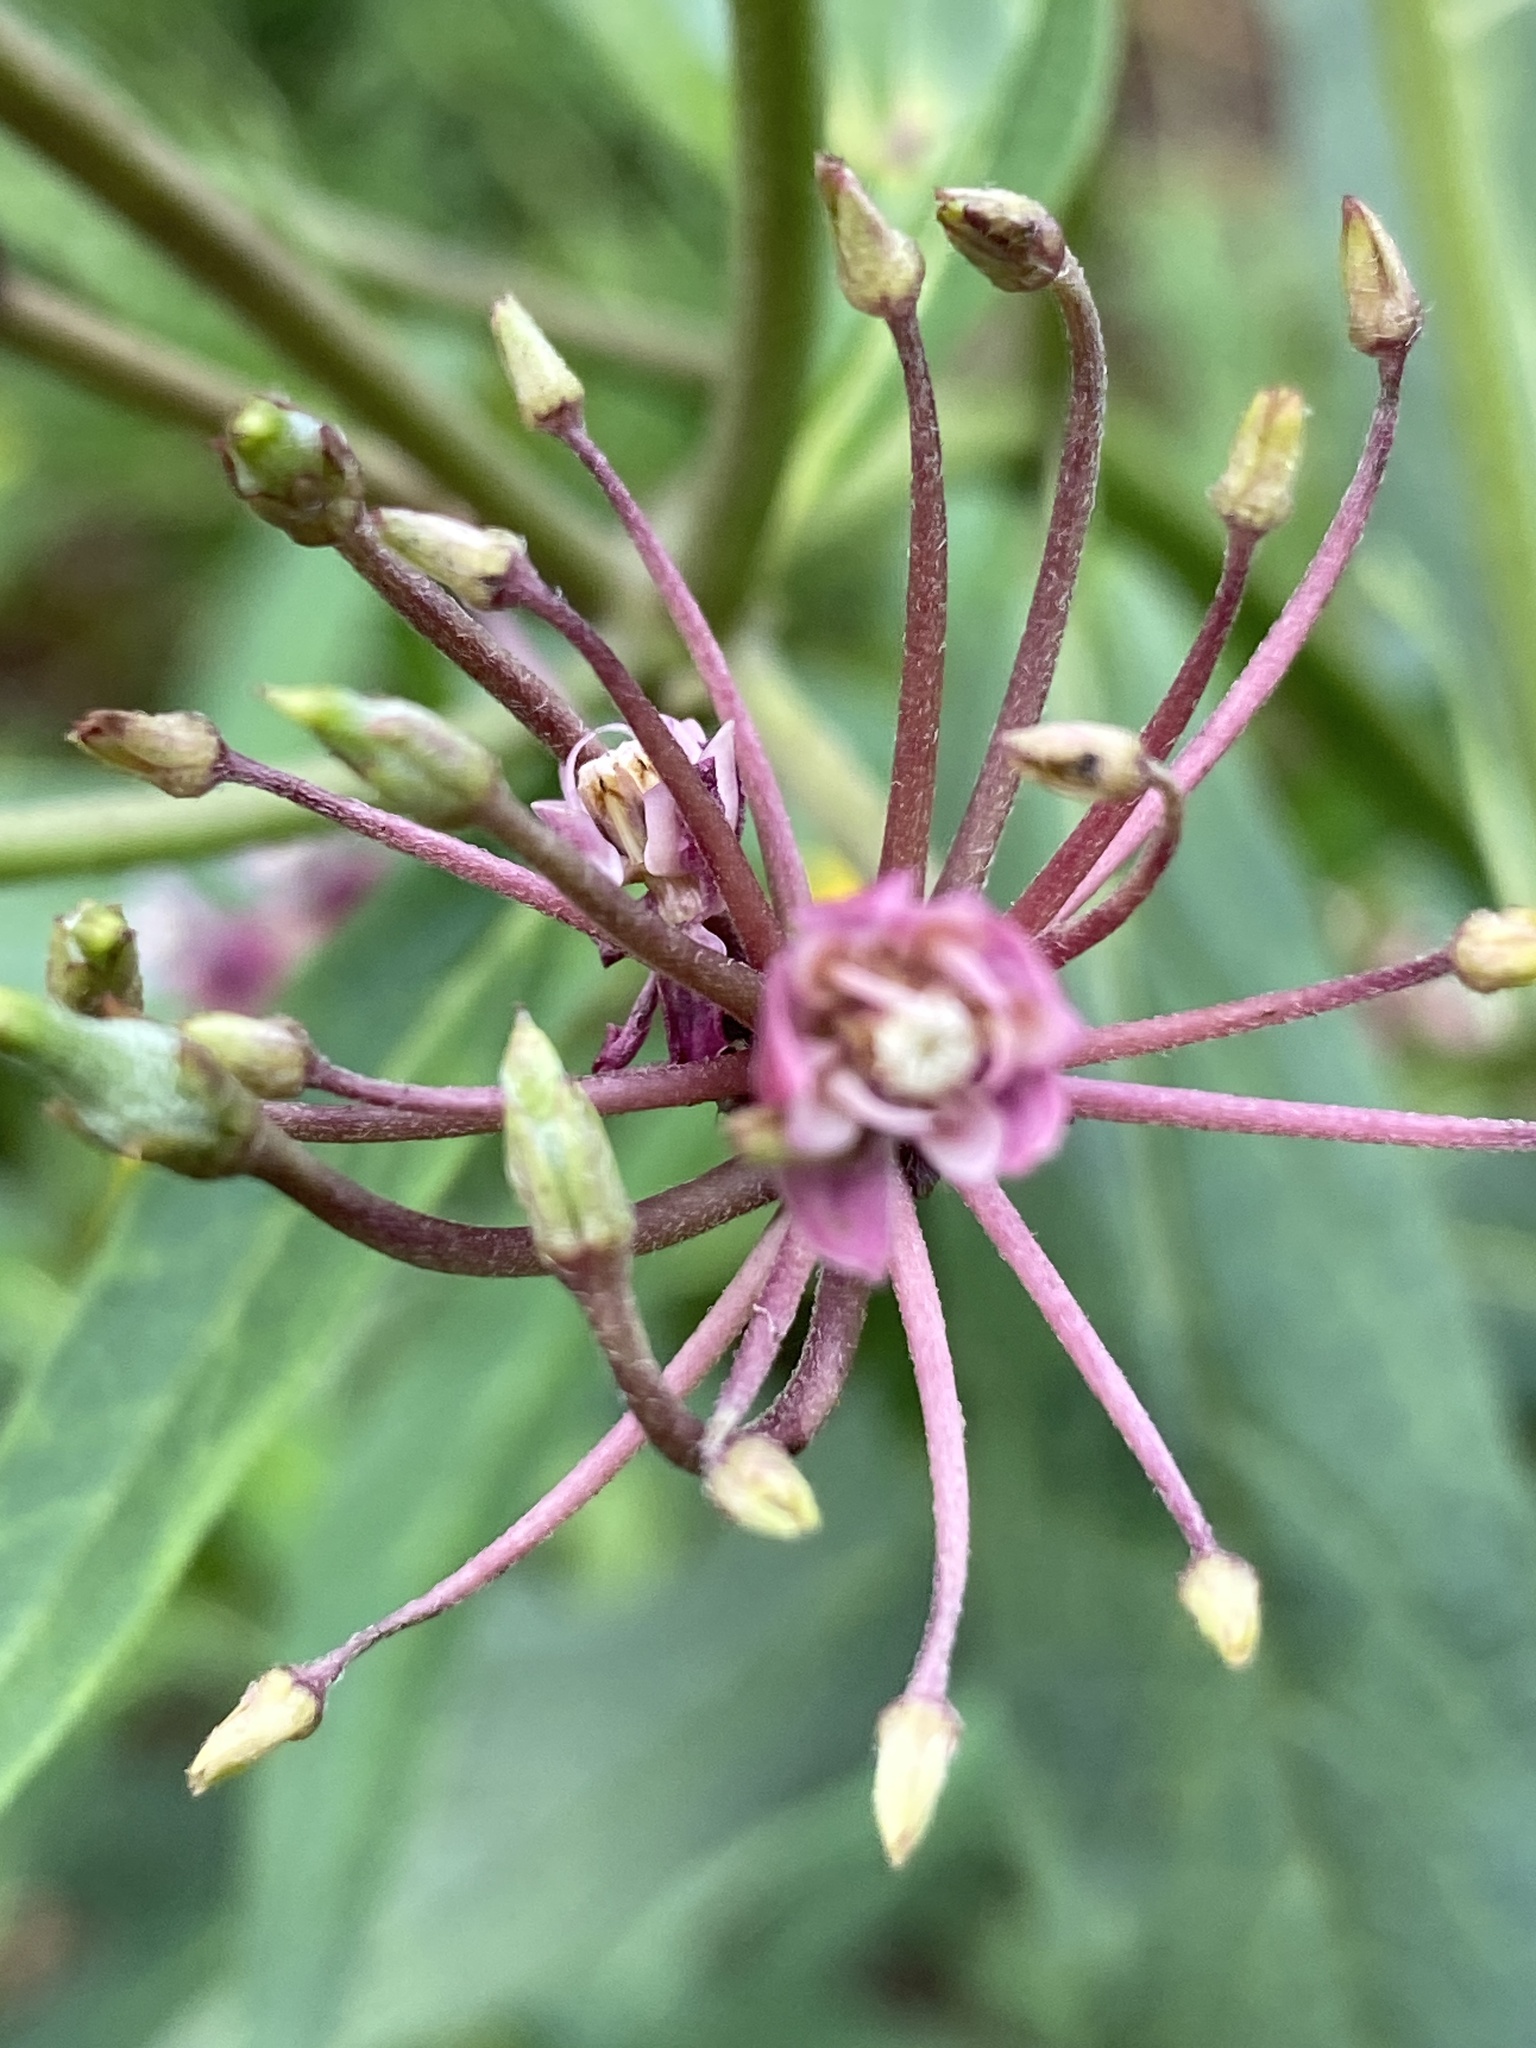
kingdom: Plantae
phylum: Tracheophyta
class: Magnoliopsida
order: Gentianales
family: Apocynaceae
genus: Asclepias
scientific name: Asclepias incarnata
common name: Swamp milkweed
